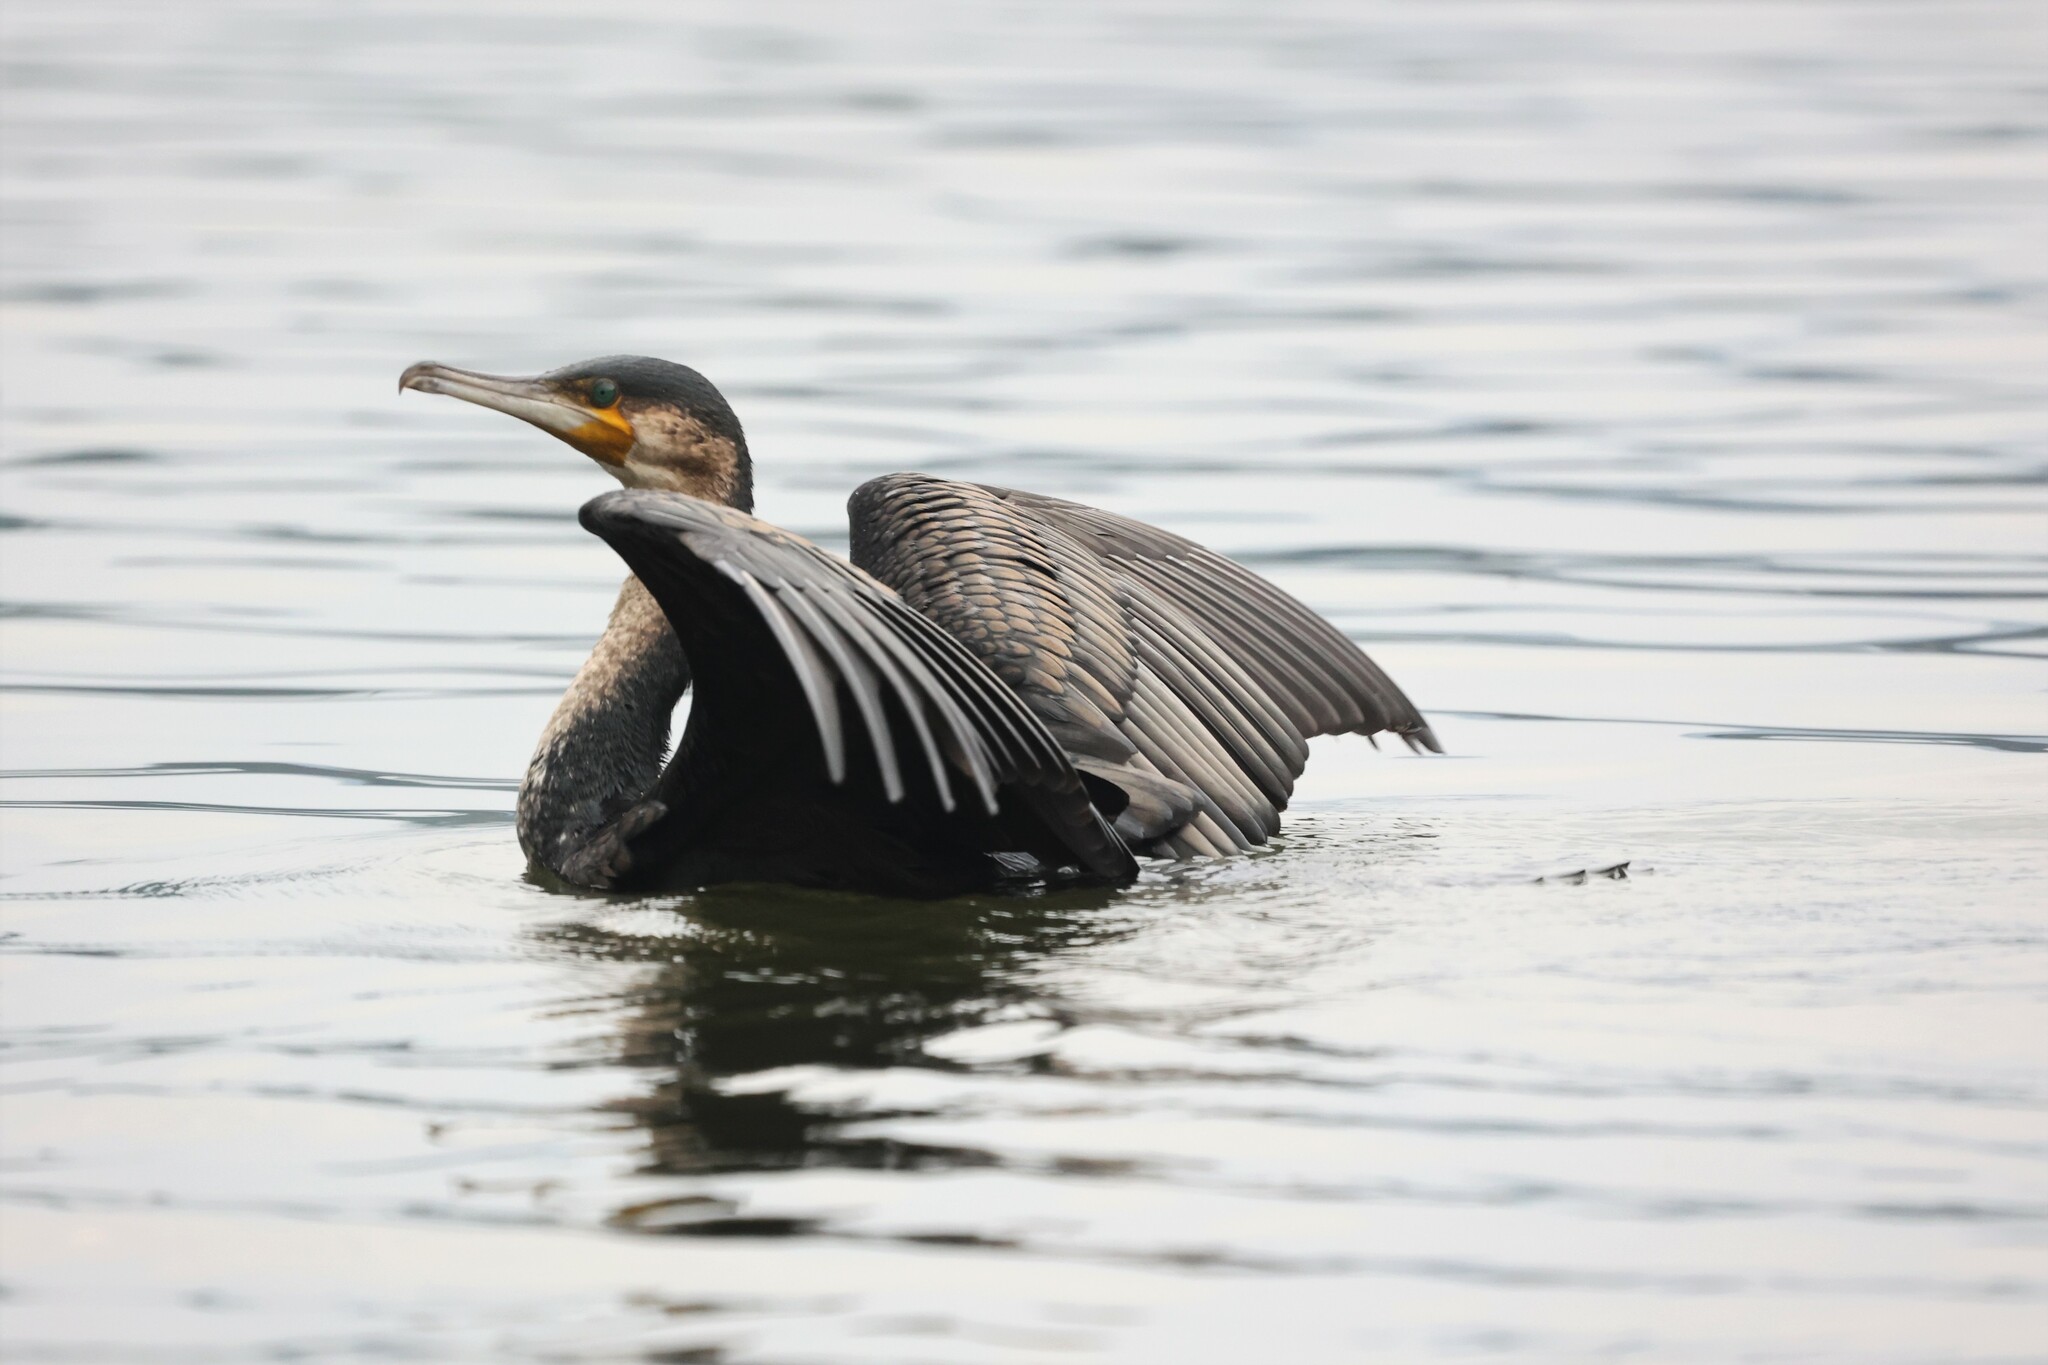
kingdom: Animalia
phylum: Chordata
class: Aves
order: Suliformes
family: Phalacrocoracidae
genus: Phalacrocorax
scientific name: Phalacrocorax carbo
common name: Great cormorant
